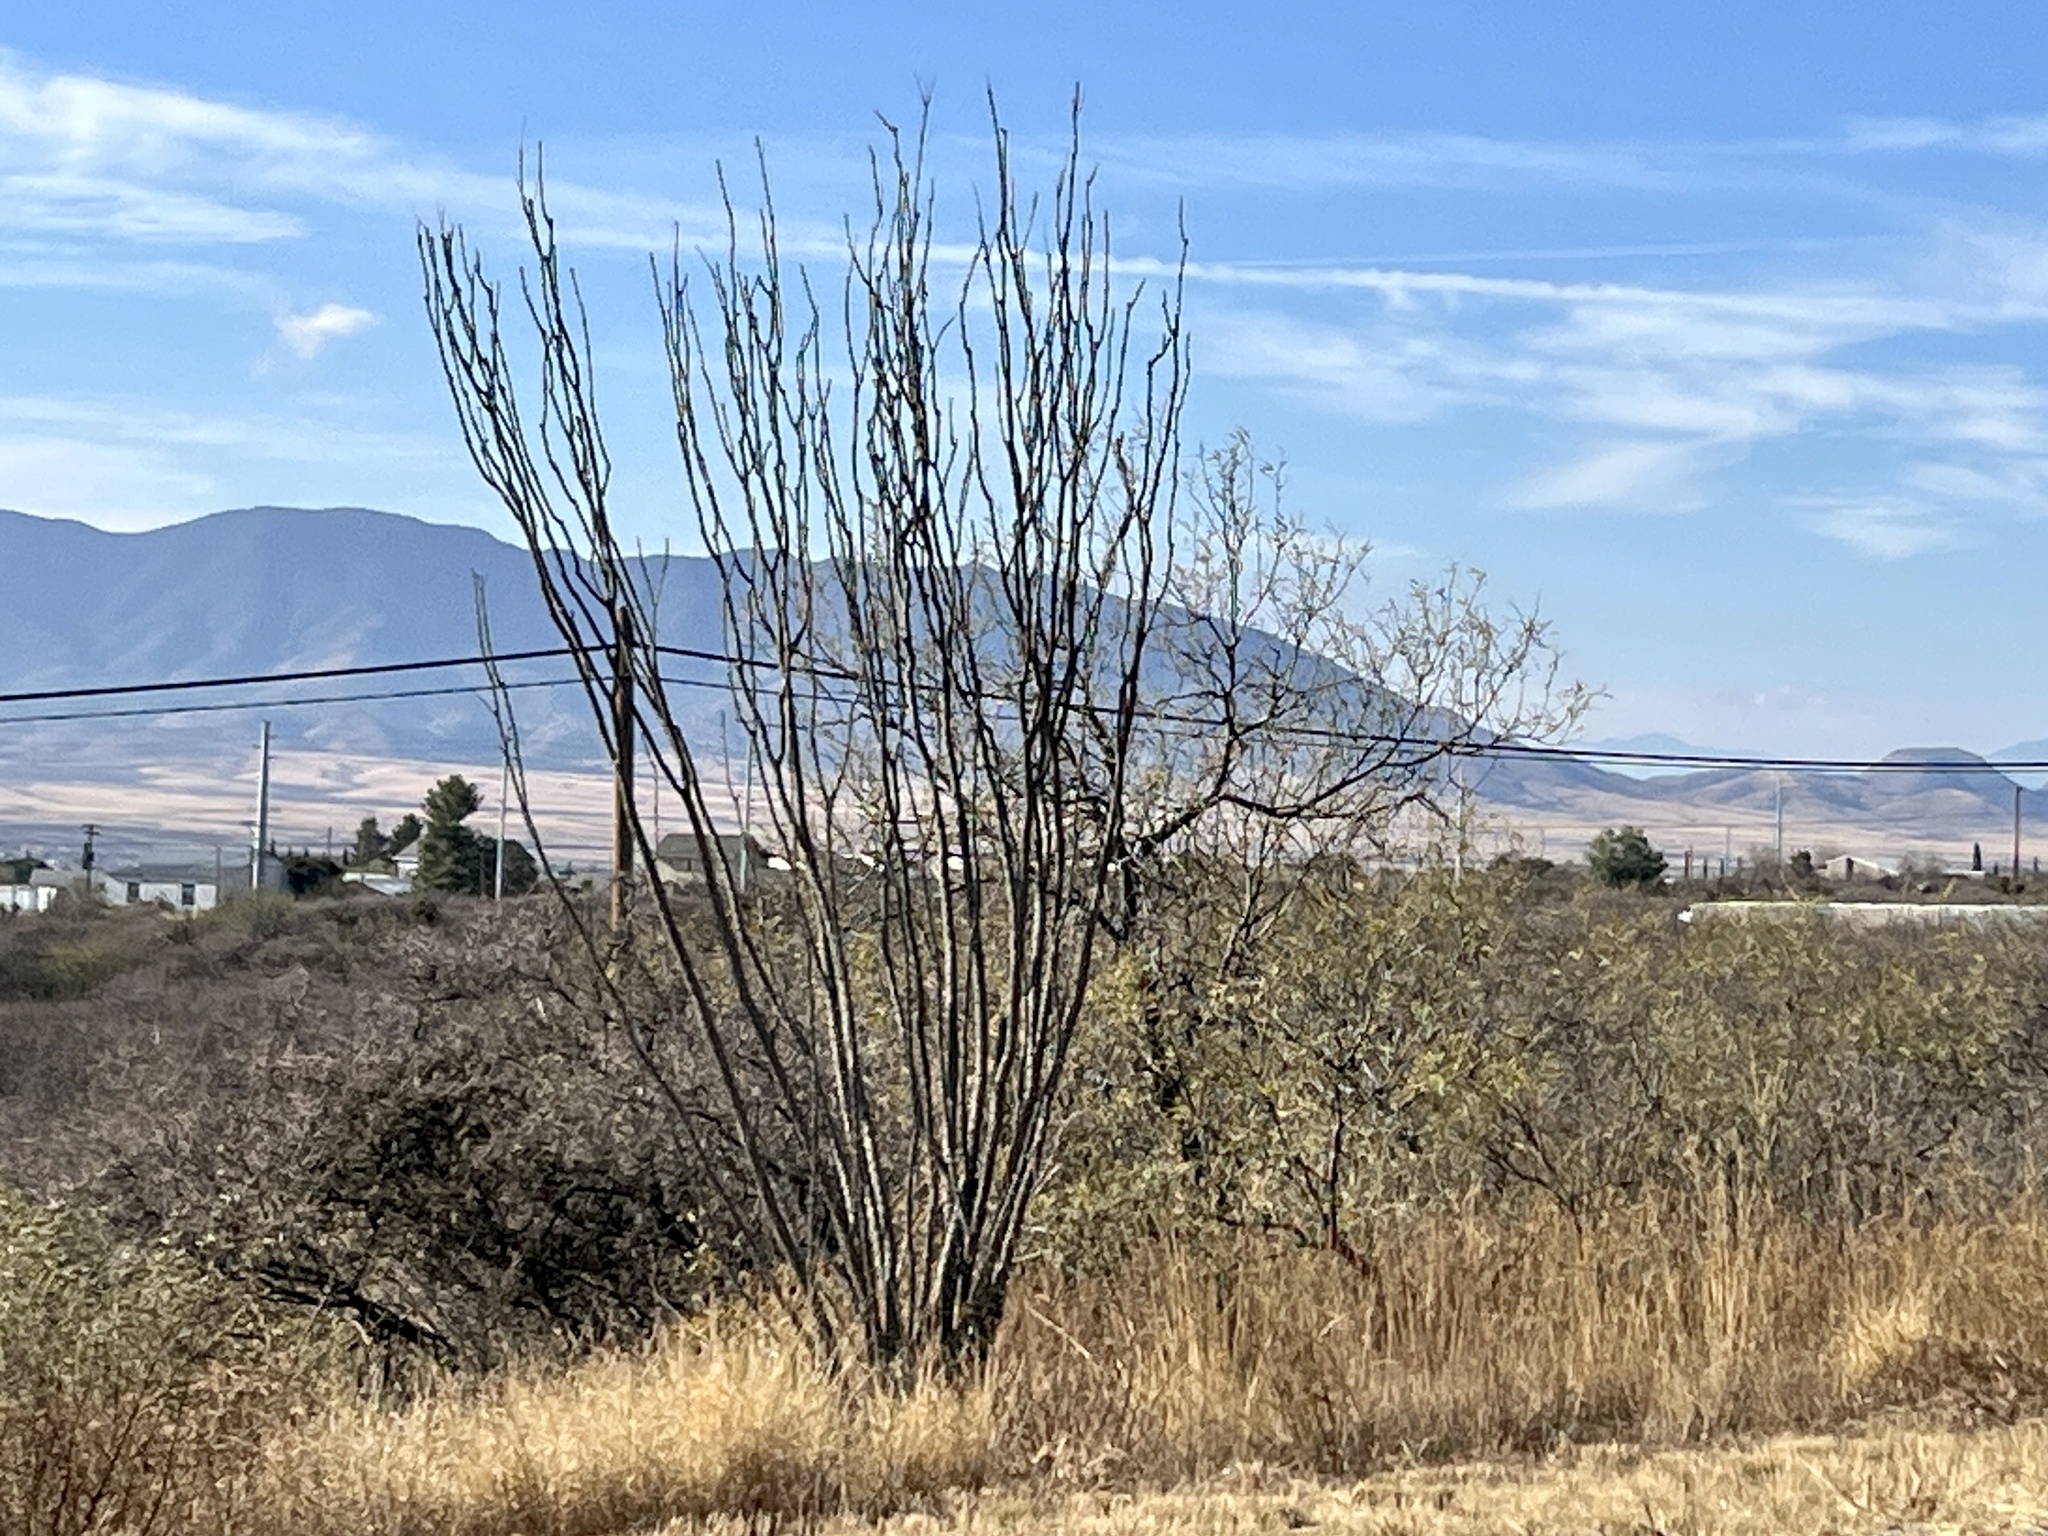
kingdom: Plantae
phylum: Tracheophyta
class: Magnoliopsida
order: Ericales
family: Fouquieriaceae
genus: Fouquieria
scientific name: Fouquieria splendens
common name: Vine-cactus
